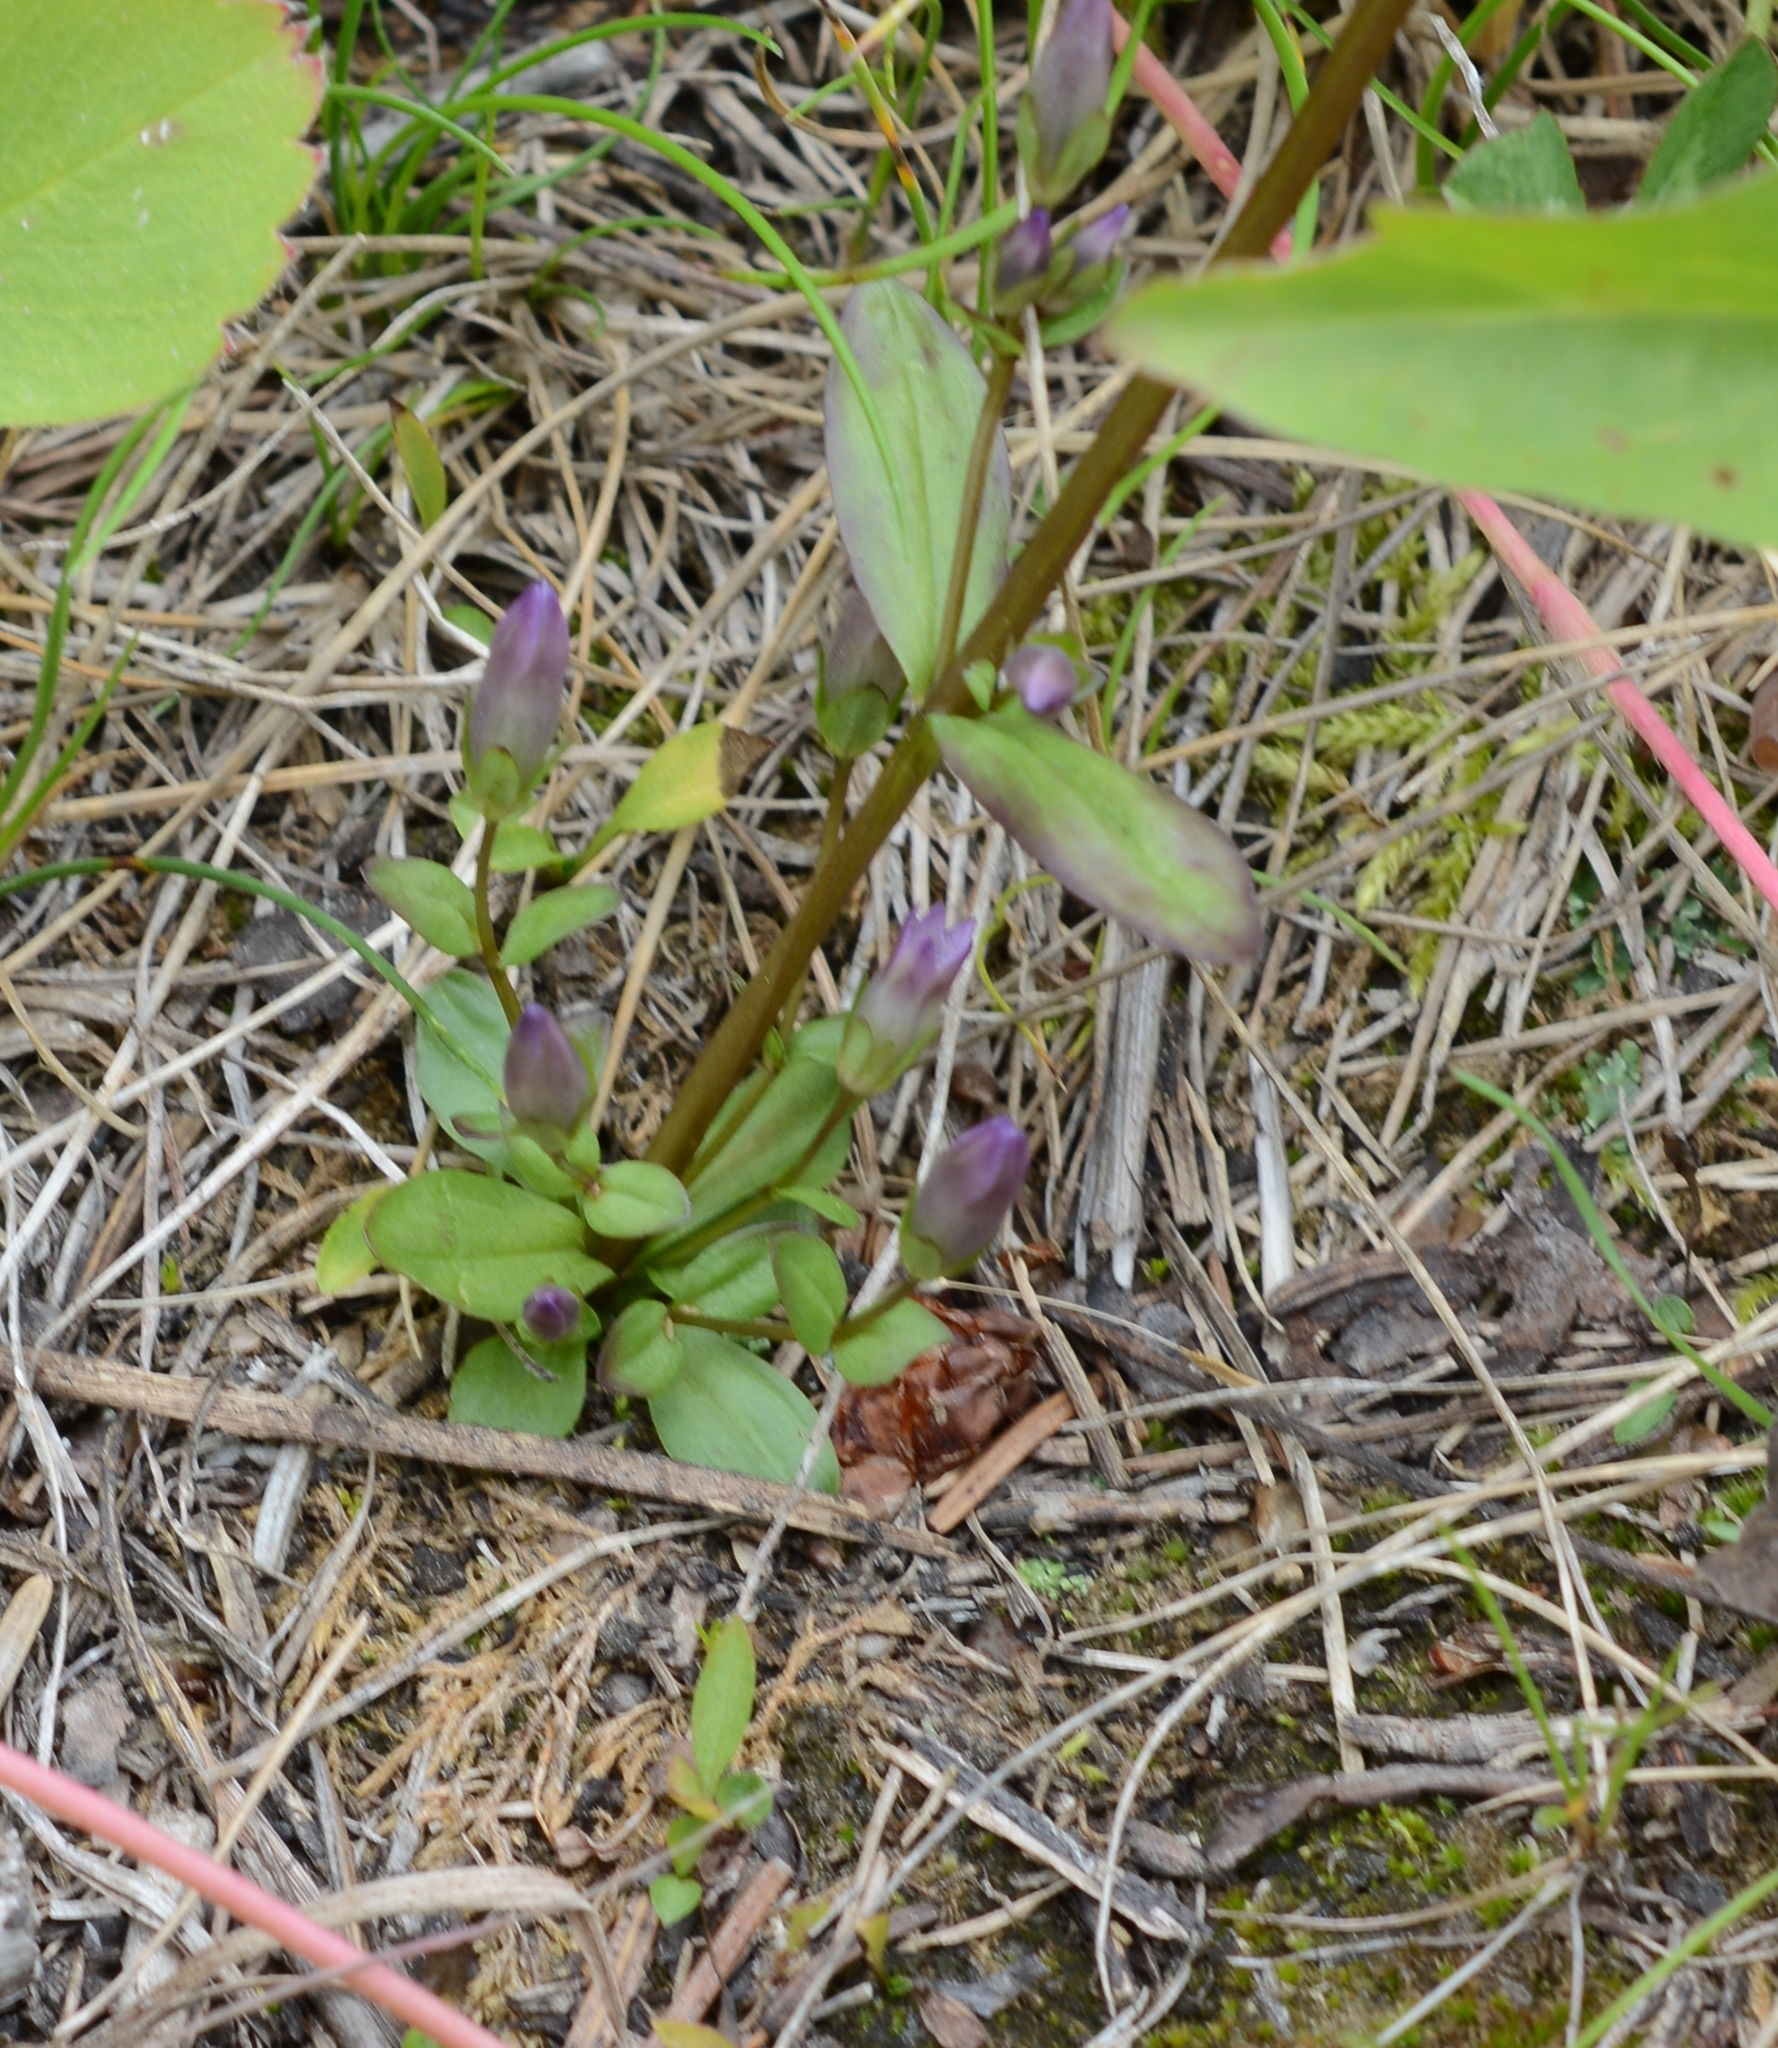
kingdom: Plantae
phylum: Tracheophyta
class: Magnoliopsida
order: Gentianales
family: Gentianaceae
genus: Gentianella
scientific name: Gentianella amarella
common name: Autumn gentian
